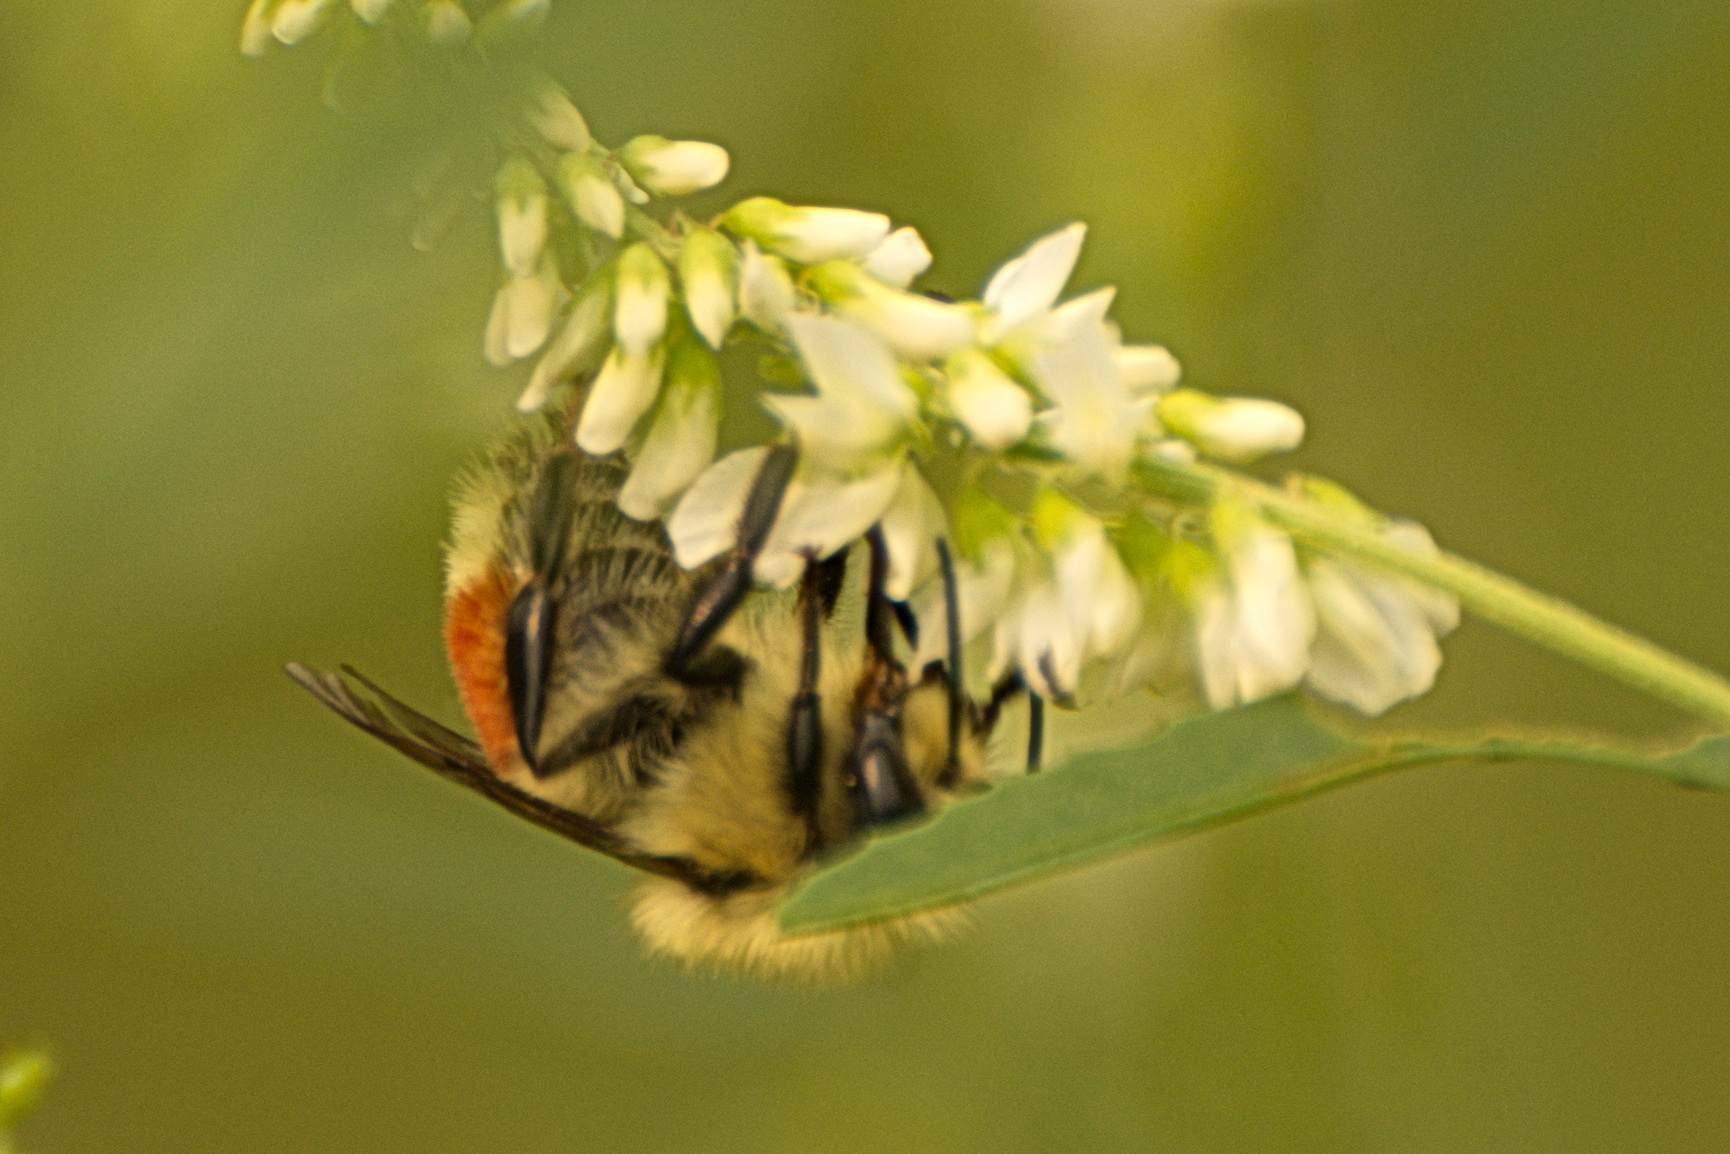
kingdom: Animalia
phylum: Arthropoda
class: Insecta
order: Hymenoptera
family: Apidae
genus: Bombus
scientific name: Bombus huntii
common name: Hunt bumble bee
